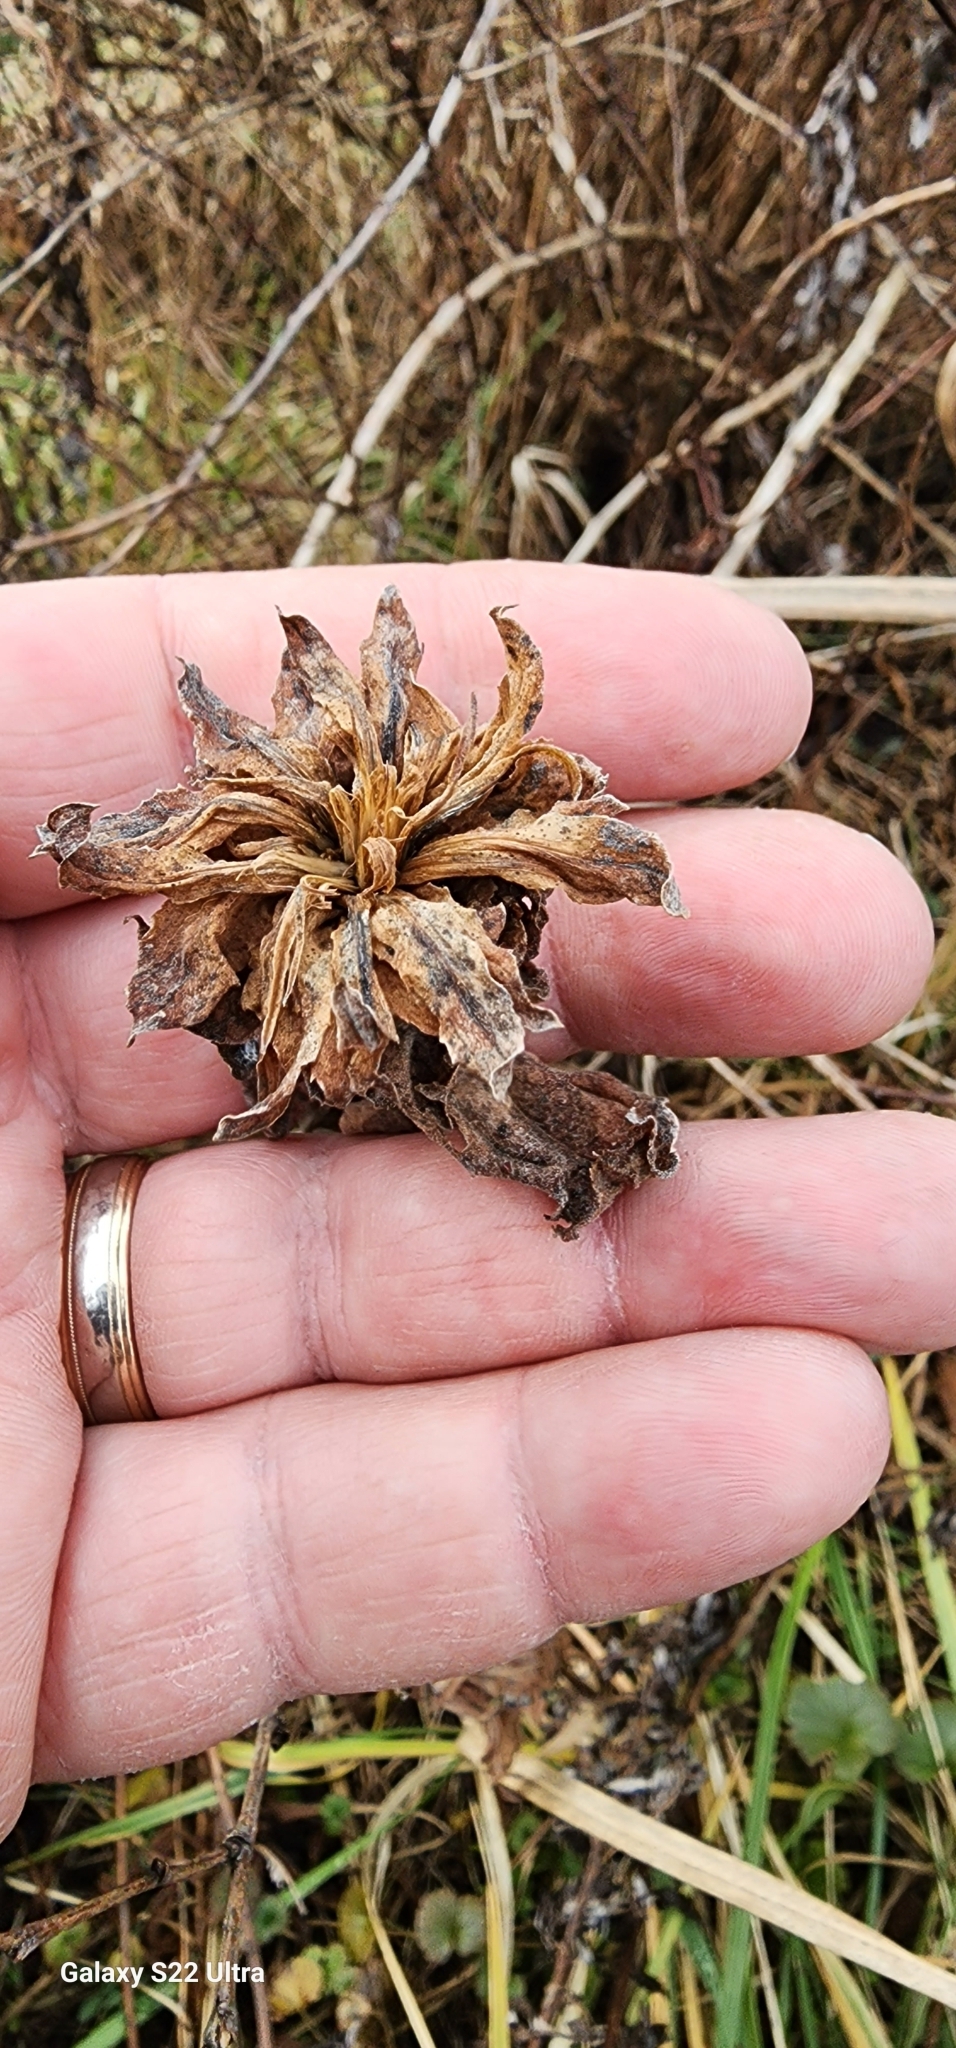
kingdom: Animalia
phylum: Arthropoda
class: Insecta
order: Diptera
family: Cecidomyiidae
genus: Rhopalomyia
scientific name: Rhopalomyia solidaginis
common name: Goldenrod bunch gall midge
